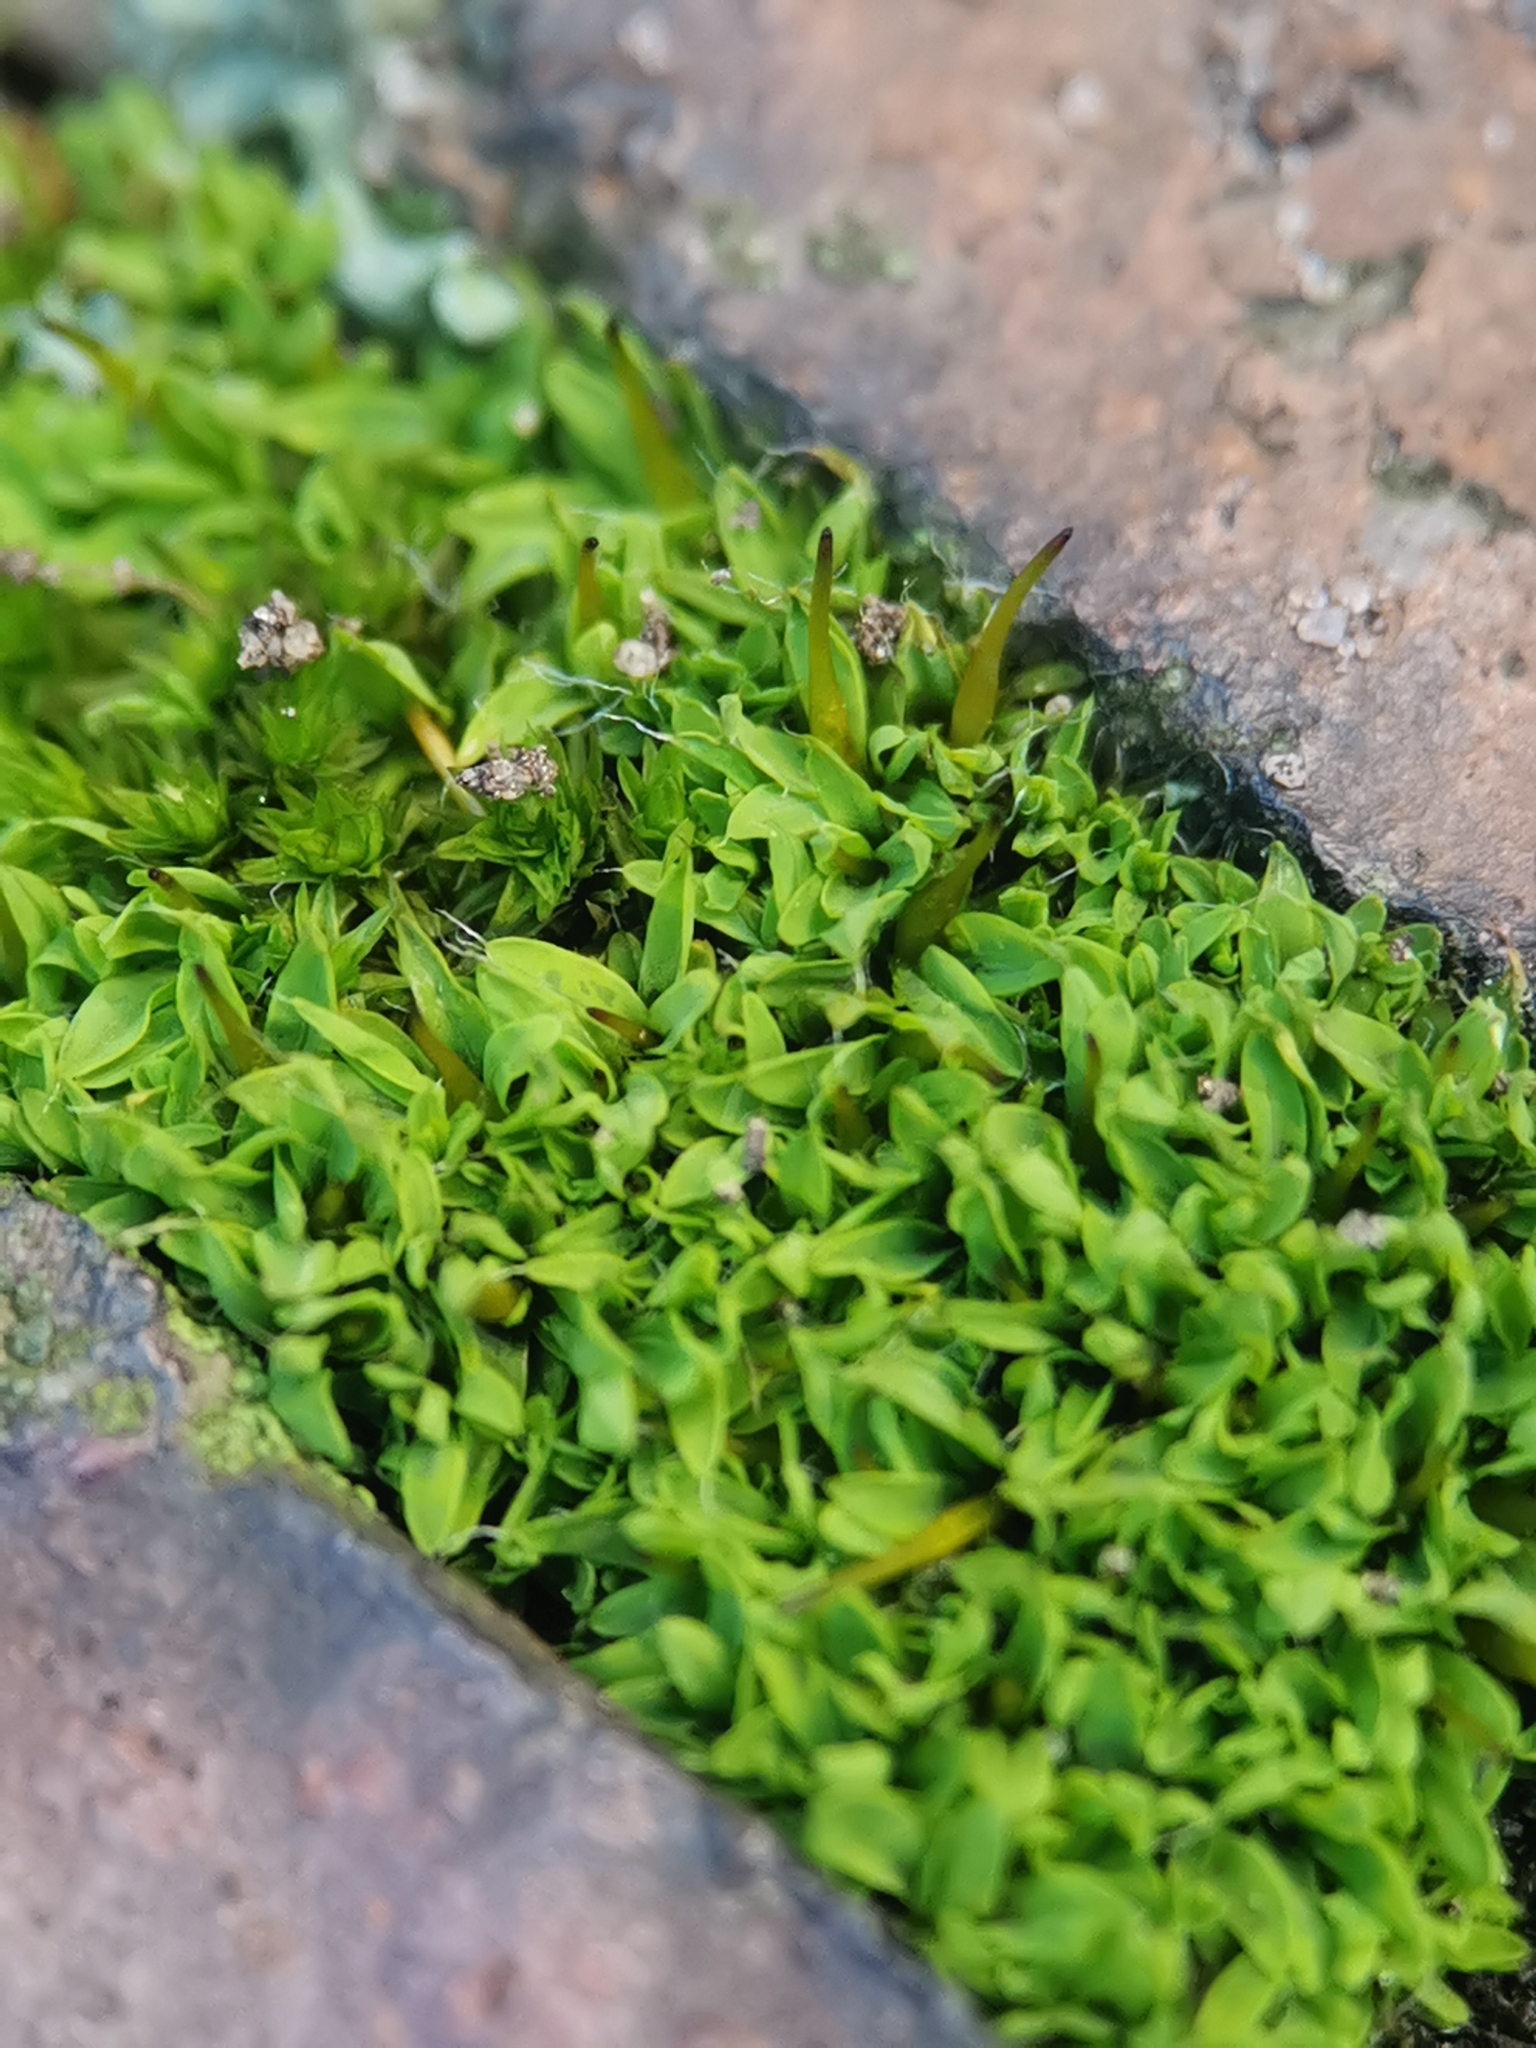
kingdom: Plantae
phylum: Bryophyta
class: Bryopsida
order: Pottiales
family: Pottiaceae
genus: Tortula
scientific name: Tortula muralis
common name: Wall screw-moss
